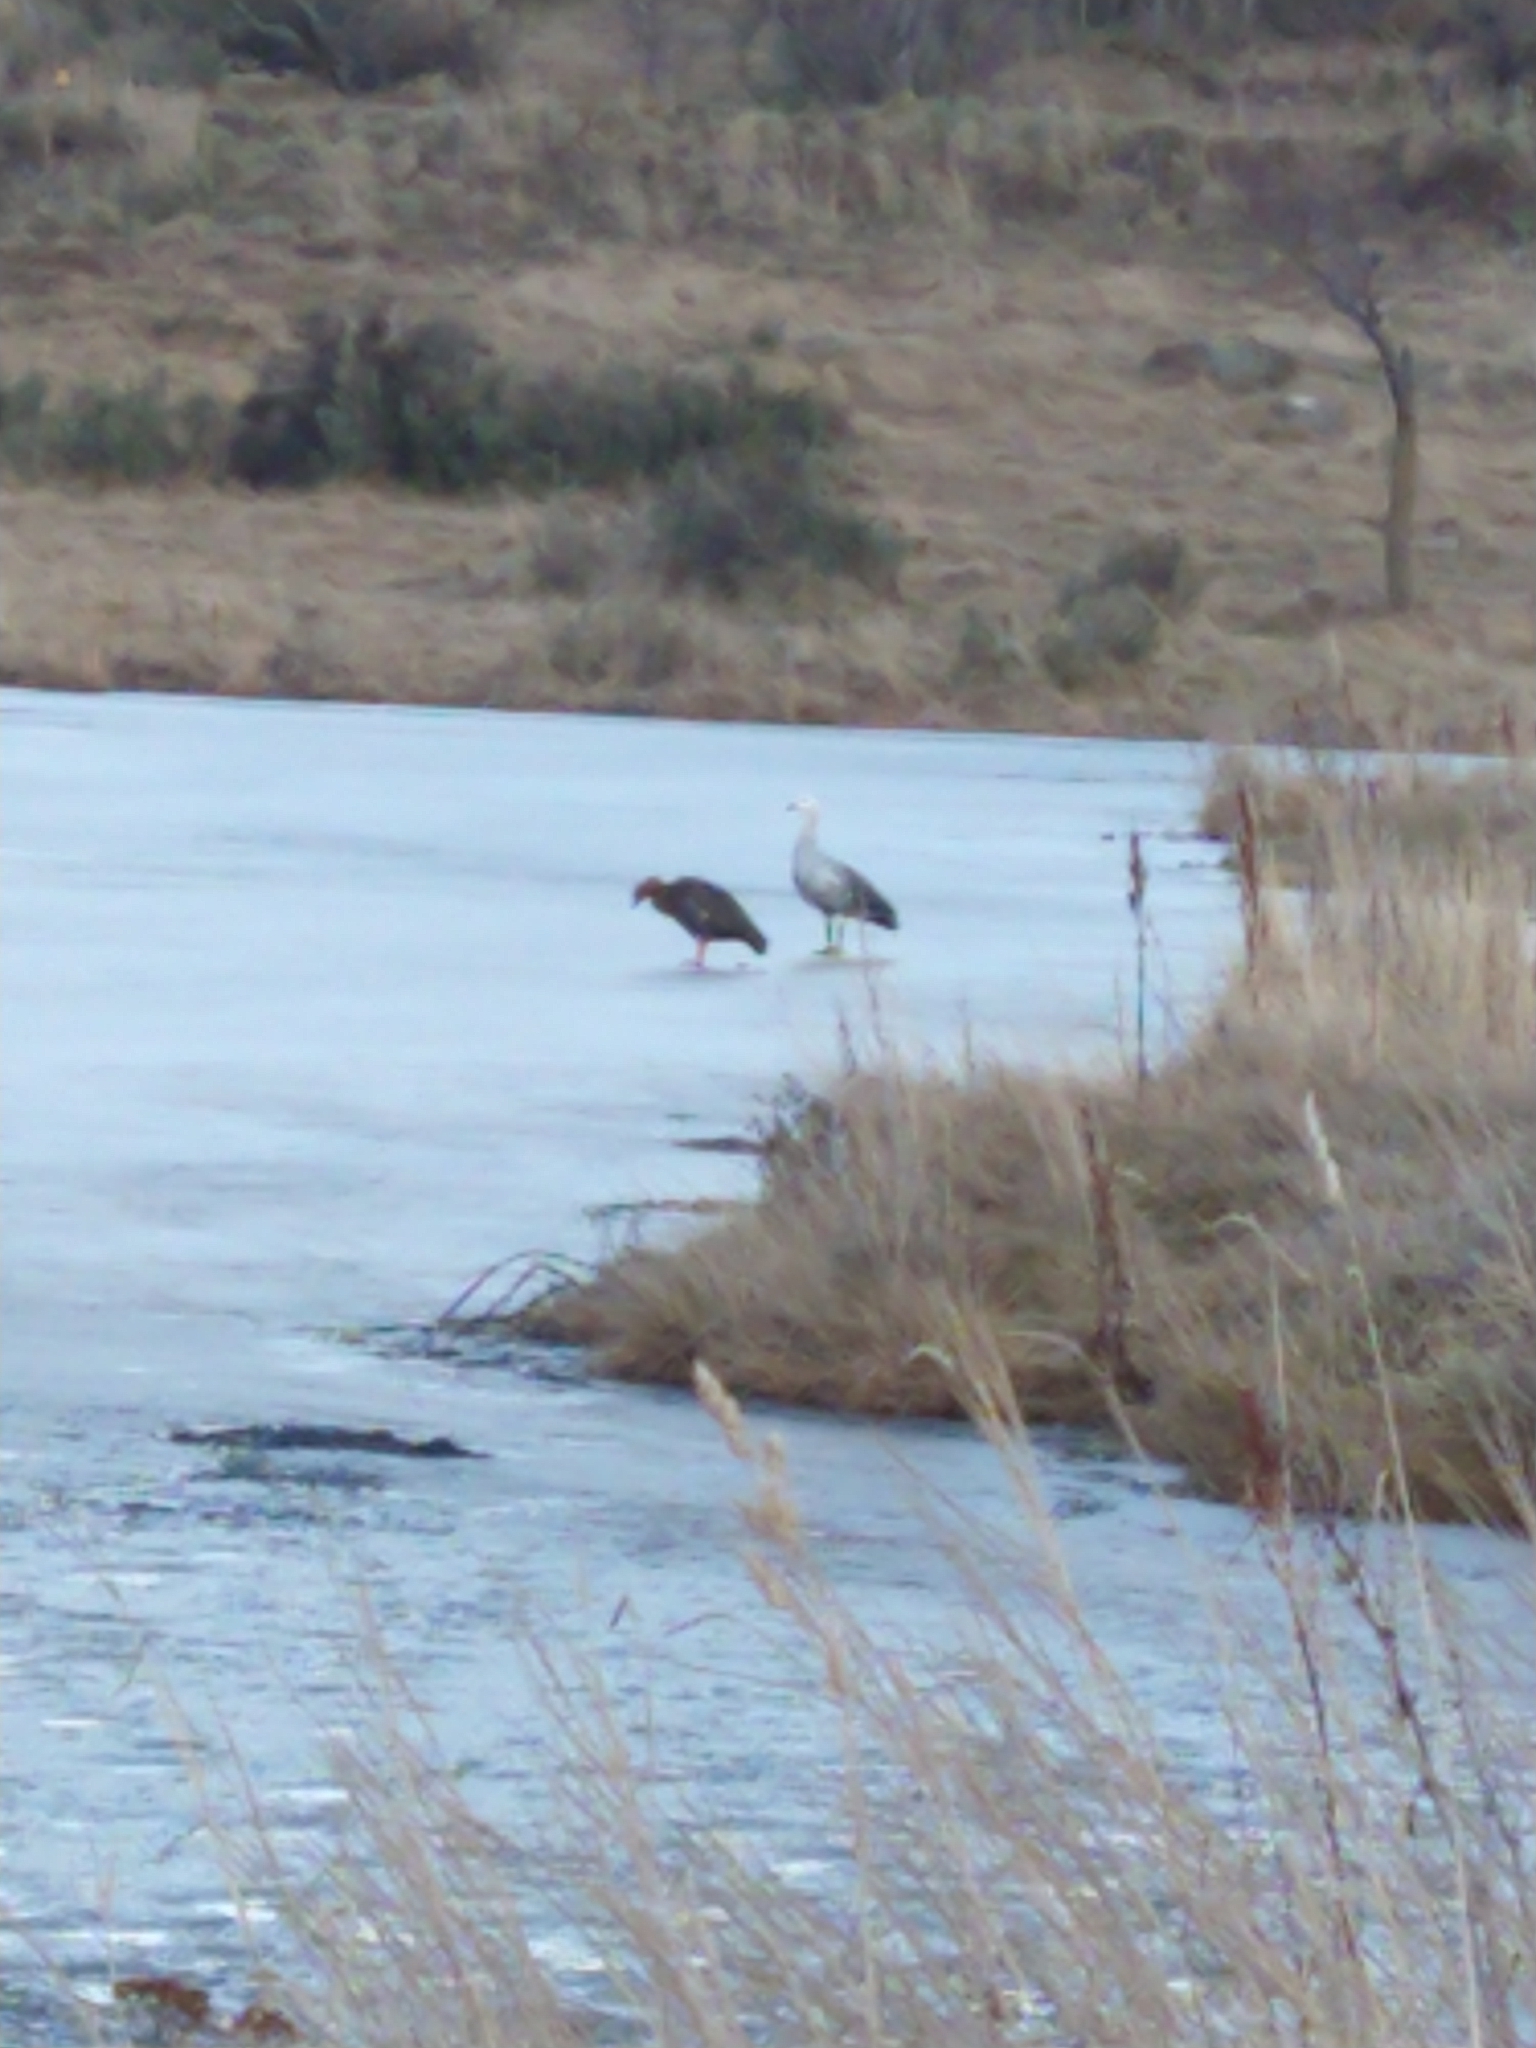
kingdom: Animalia
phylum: Chordata
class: Aves
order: Anseriformes
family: Anatidae
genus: Chloephaga
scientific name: Chloephaga picta
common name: Upland goose
